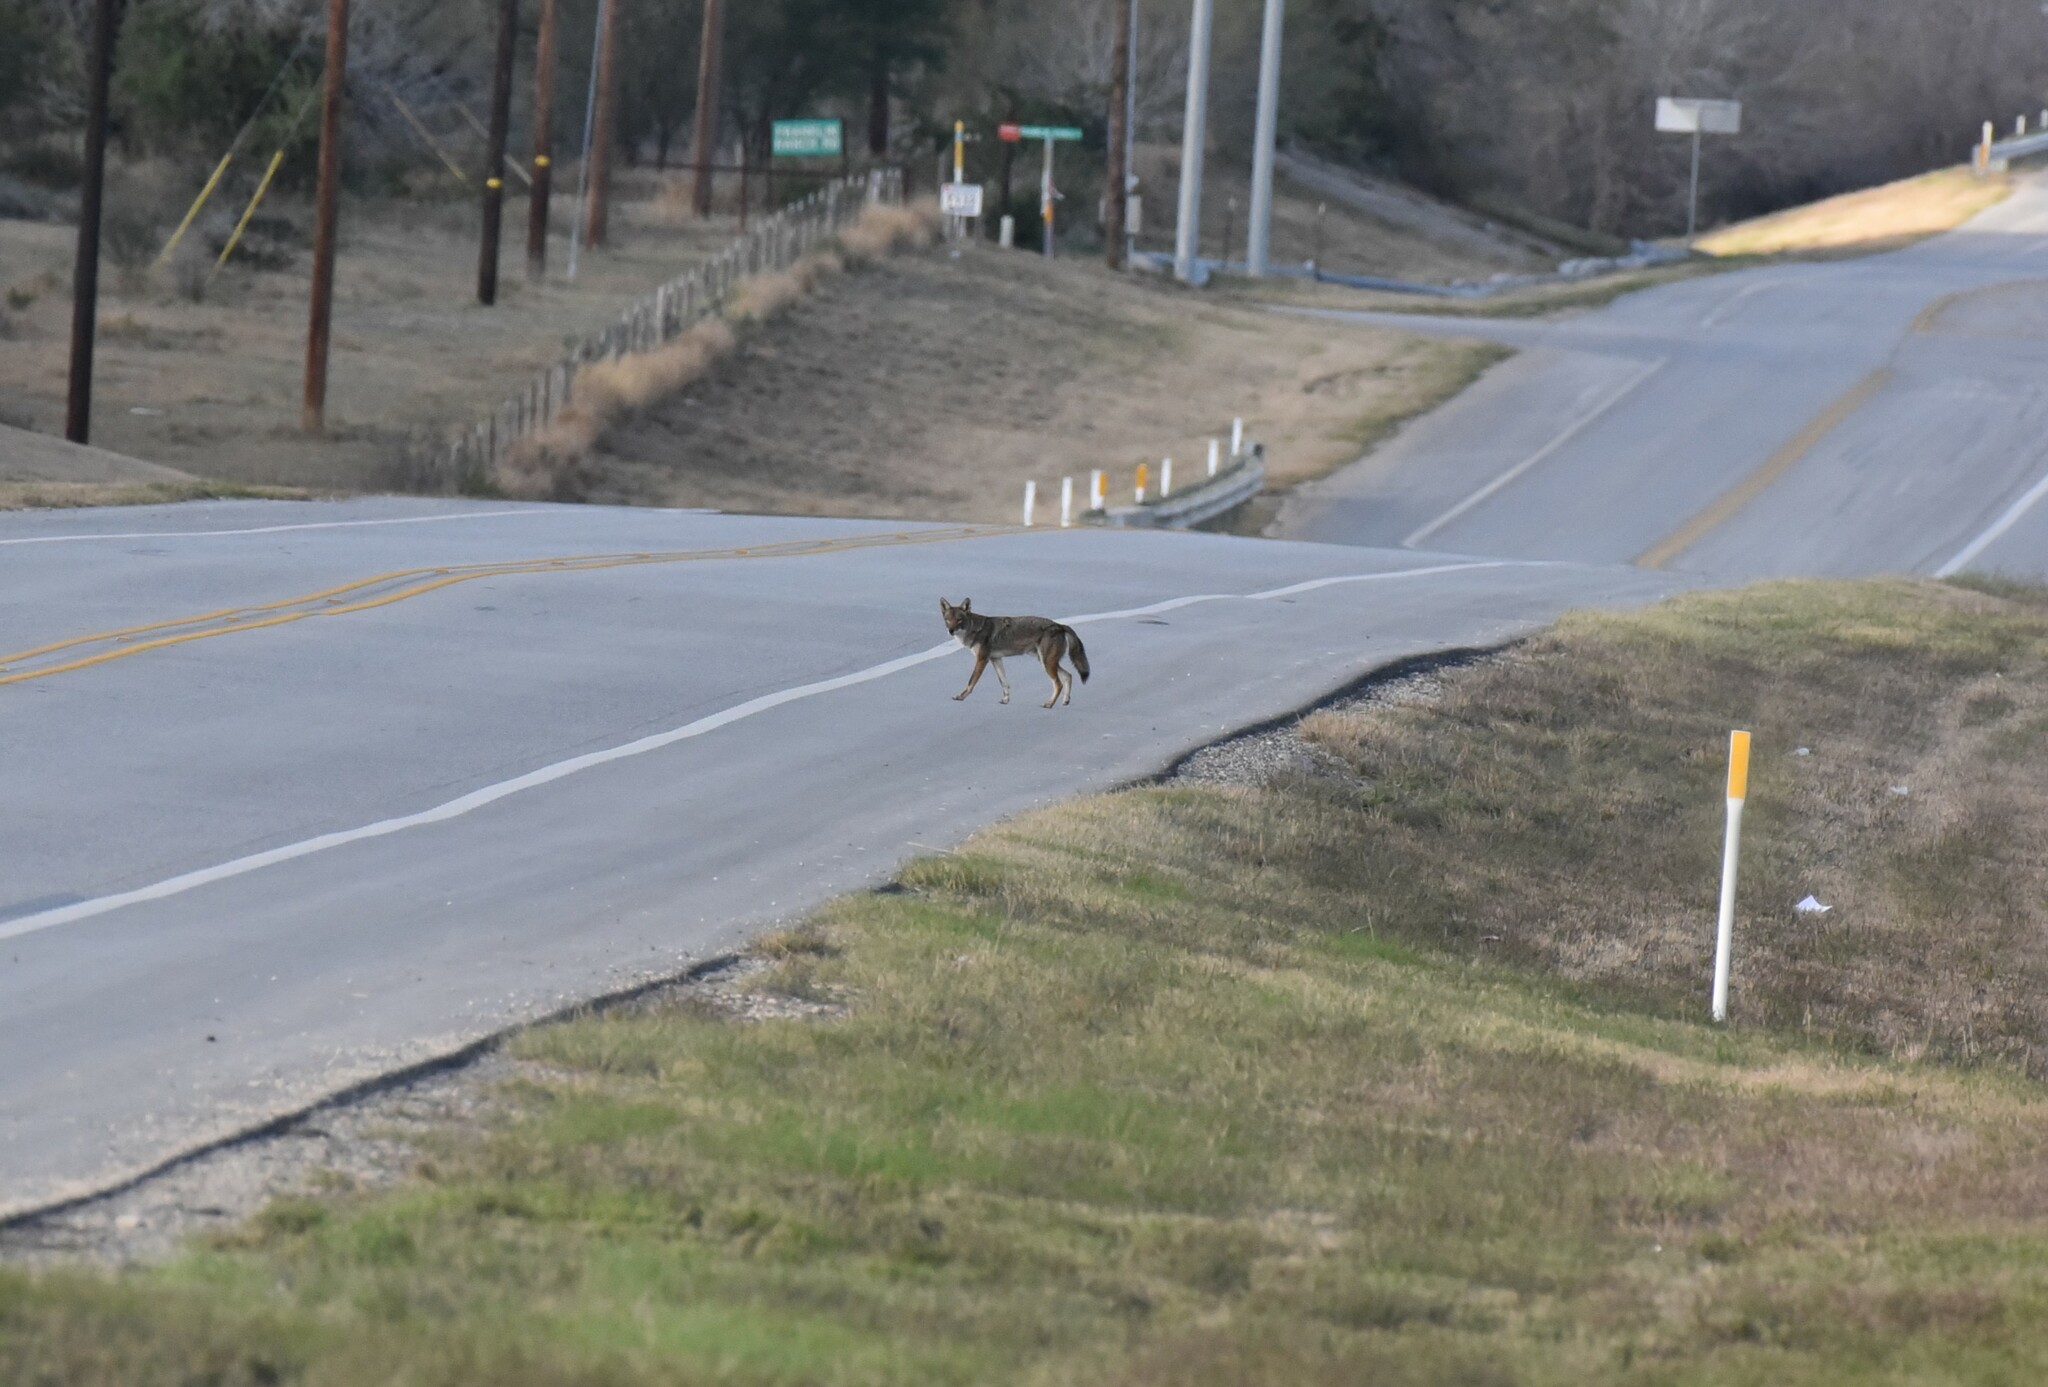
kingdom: Animalia
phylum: Chordata
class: Mammalia
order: Carnivora
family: Canidae
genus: Canis
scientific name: Canis latrans
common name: Coyote
